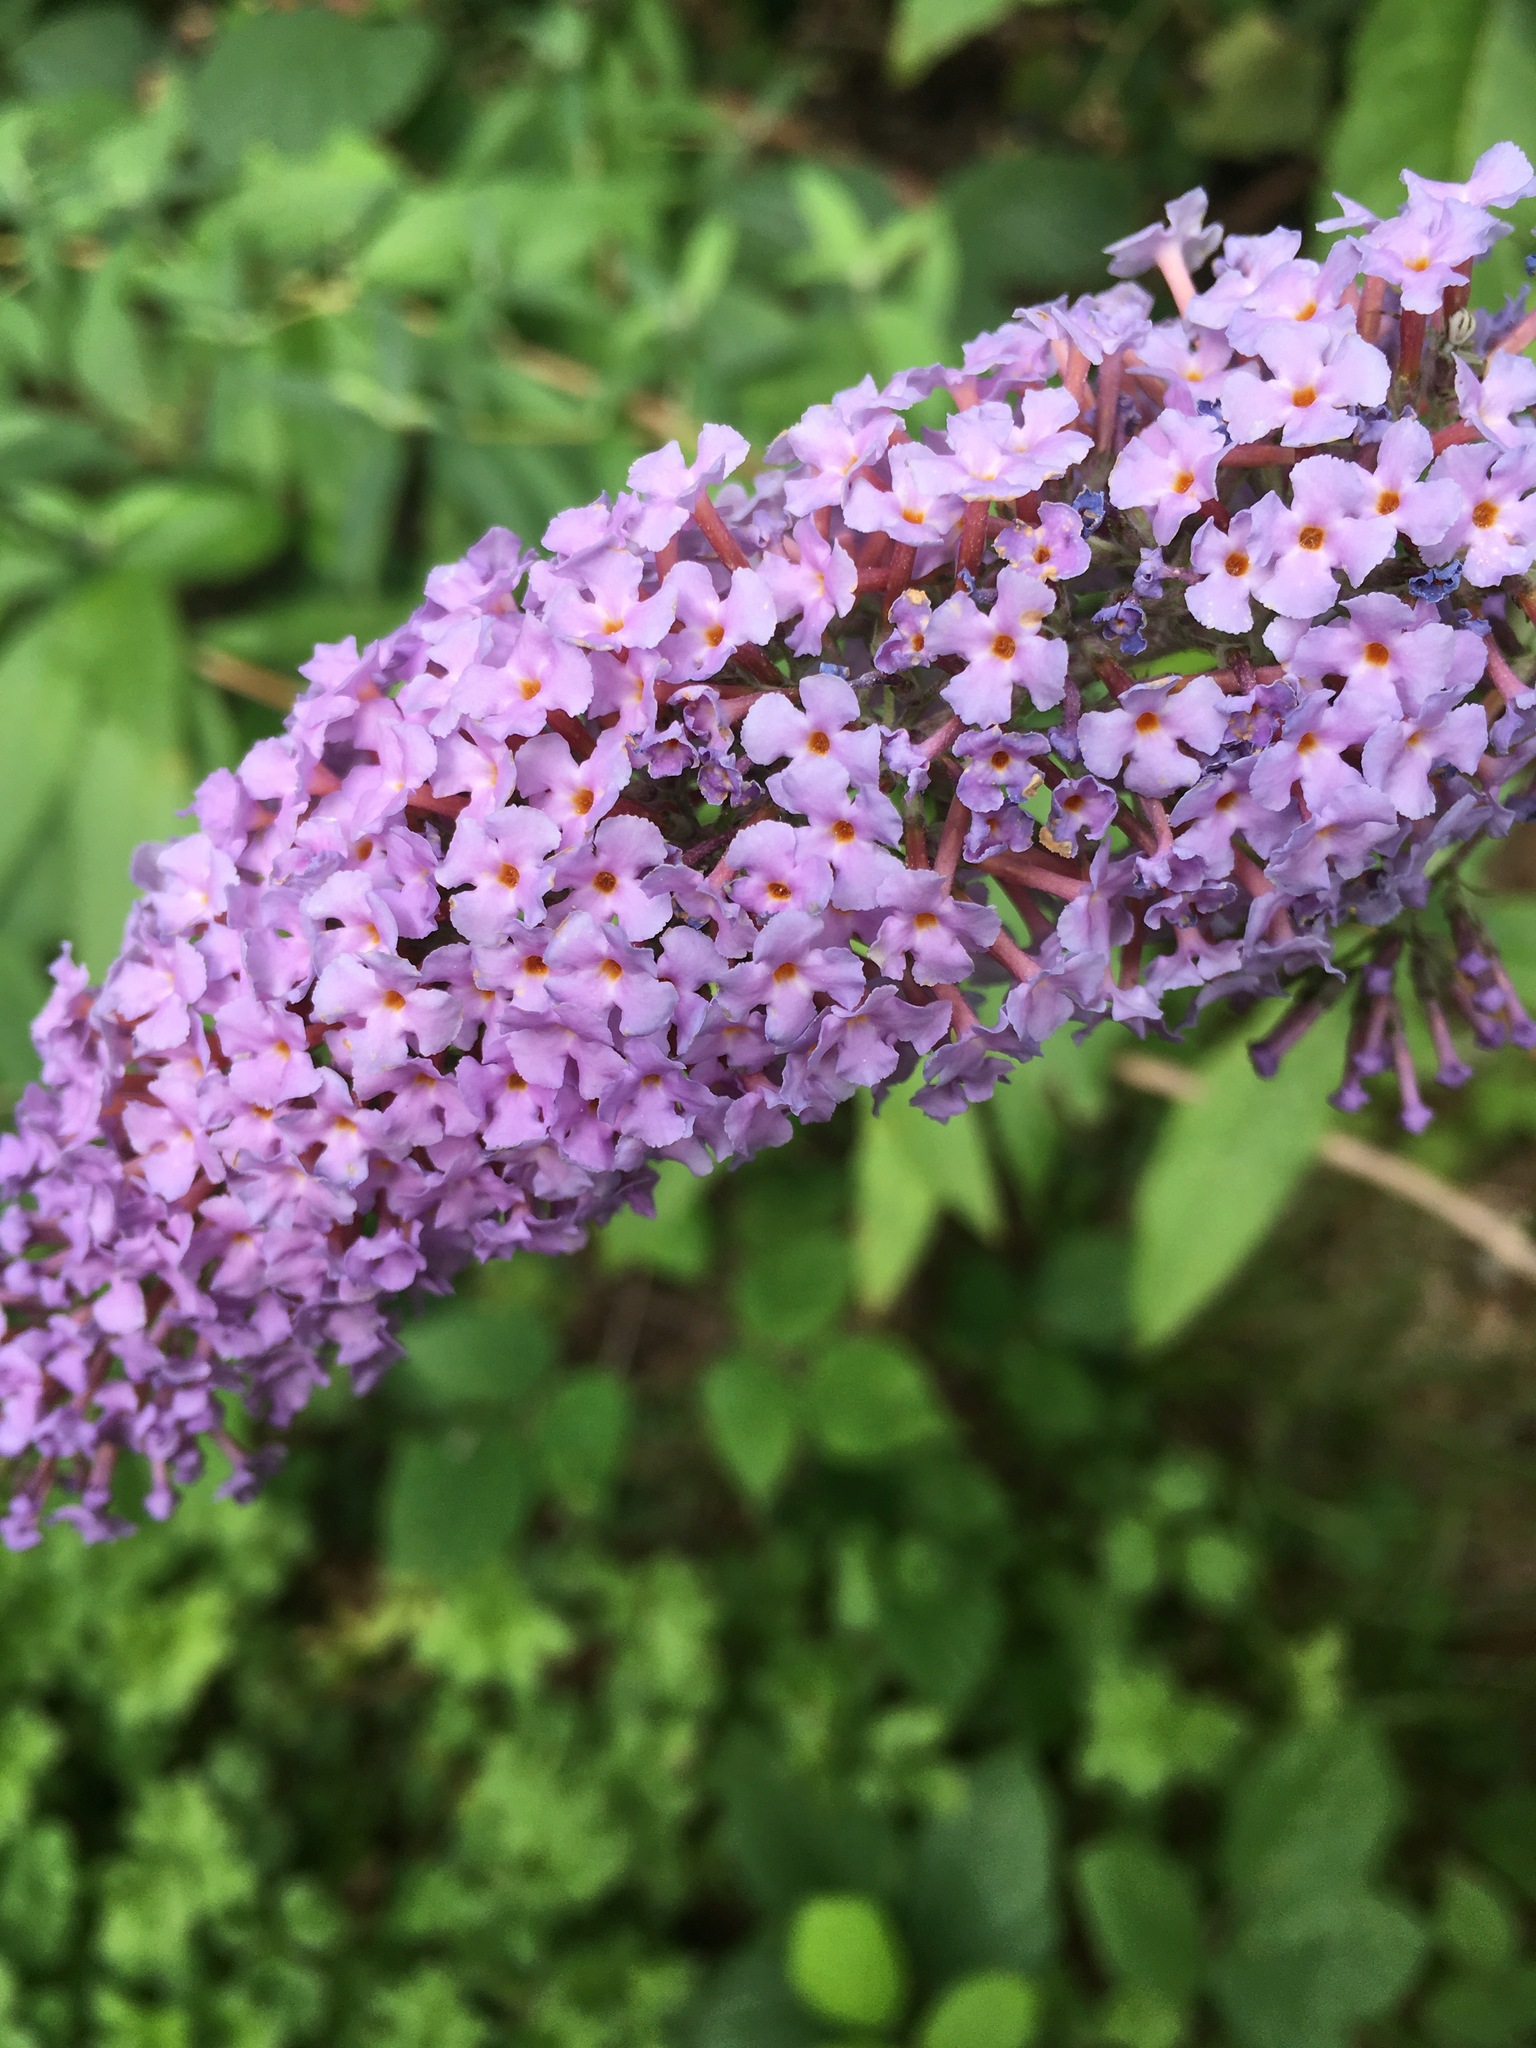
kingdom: Plantae
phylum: Tracheophyta
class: Magnoliopsida
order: Lamiales
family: Scrophulariaceae
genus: Buddleja
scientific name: Buddleja davidii
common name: Butterfly-bush
